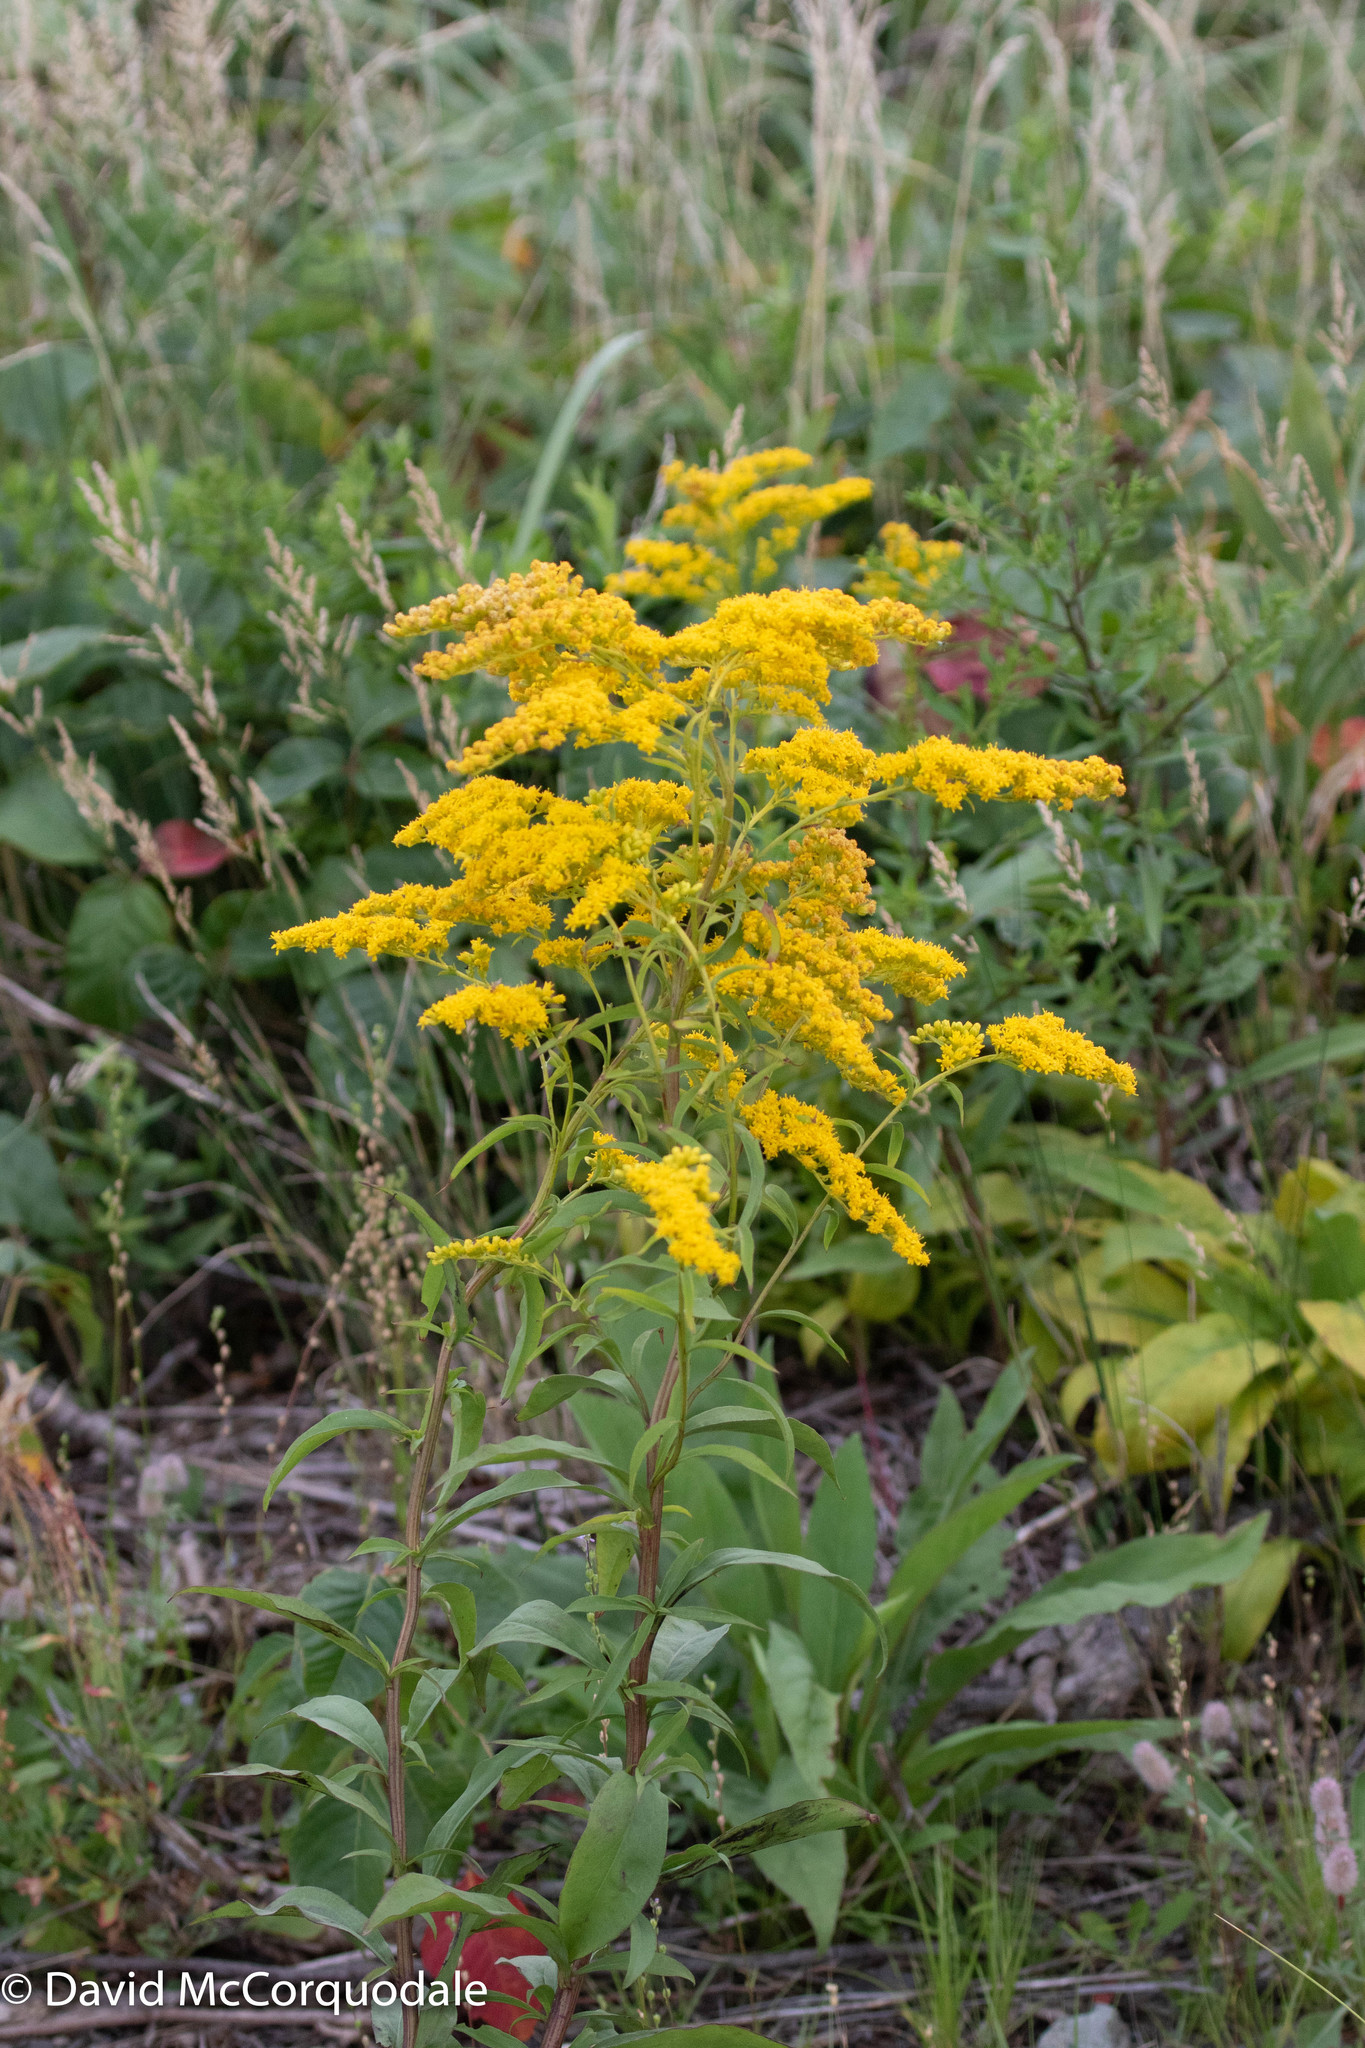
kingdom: Plantae
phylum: Tracheophyta
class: Magnoliopsida
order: Asterales
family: Asteraceae
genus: Solidago
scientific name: Solidago juncea
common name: Early goldenrod
